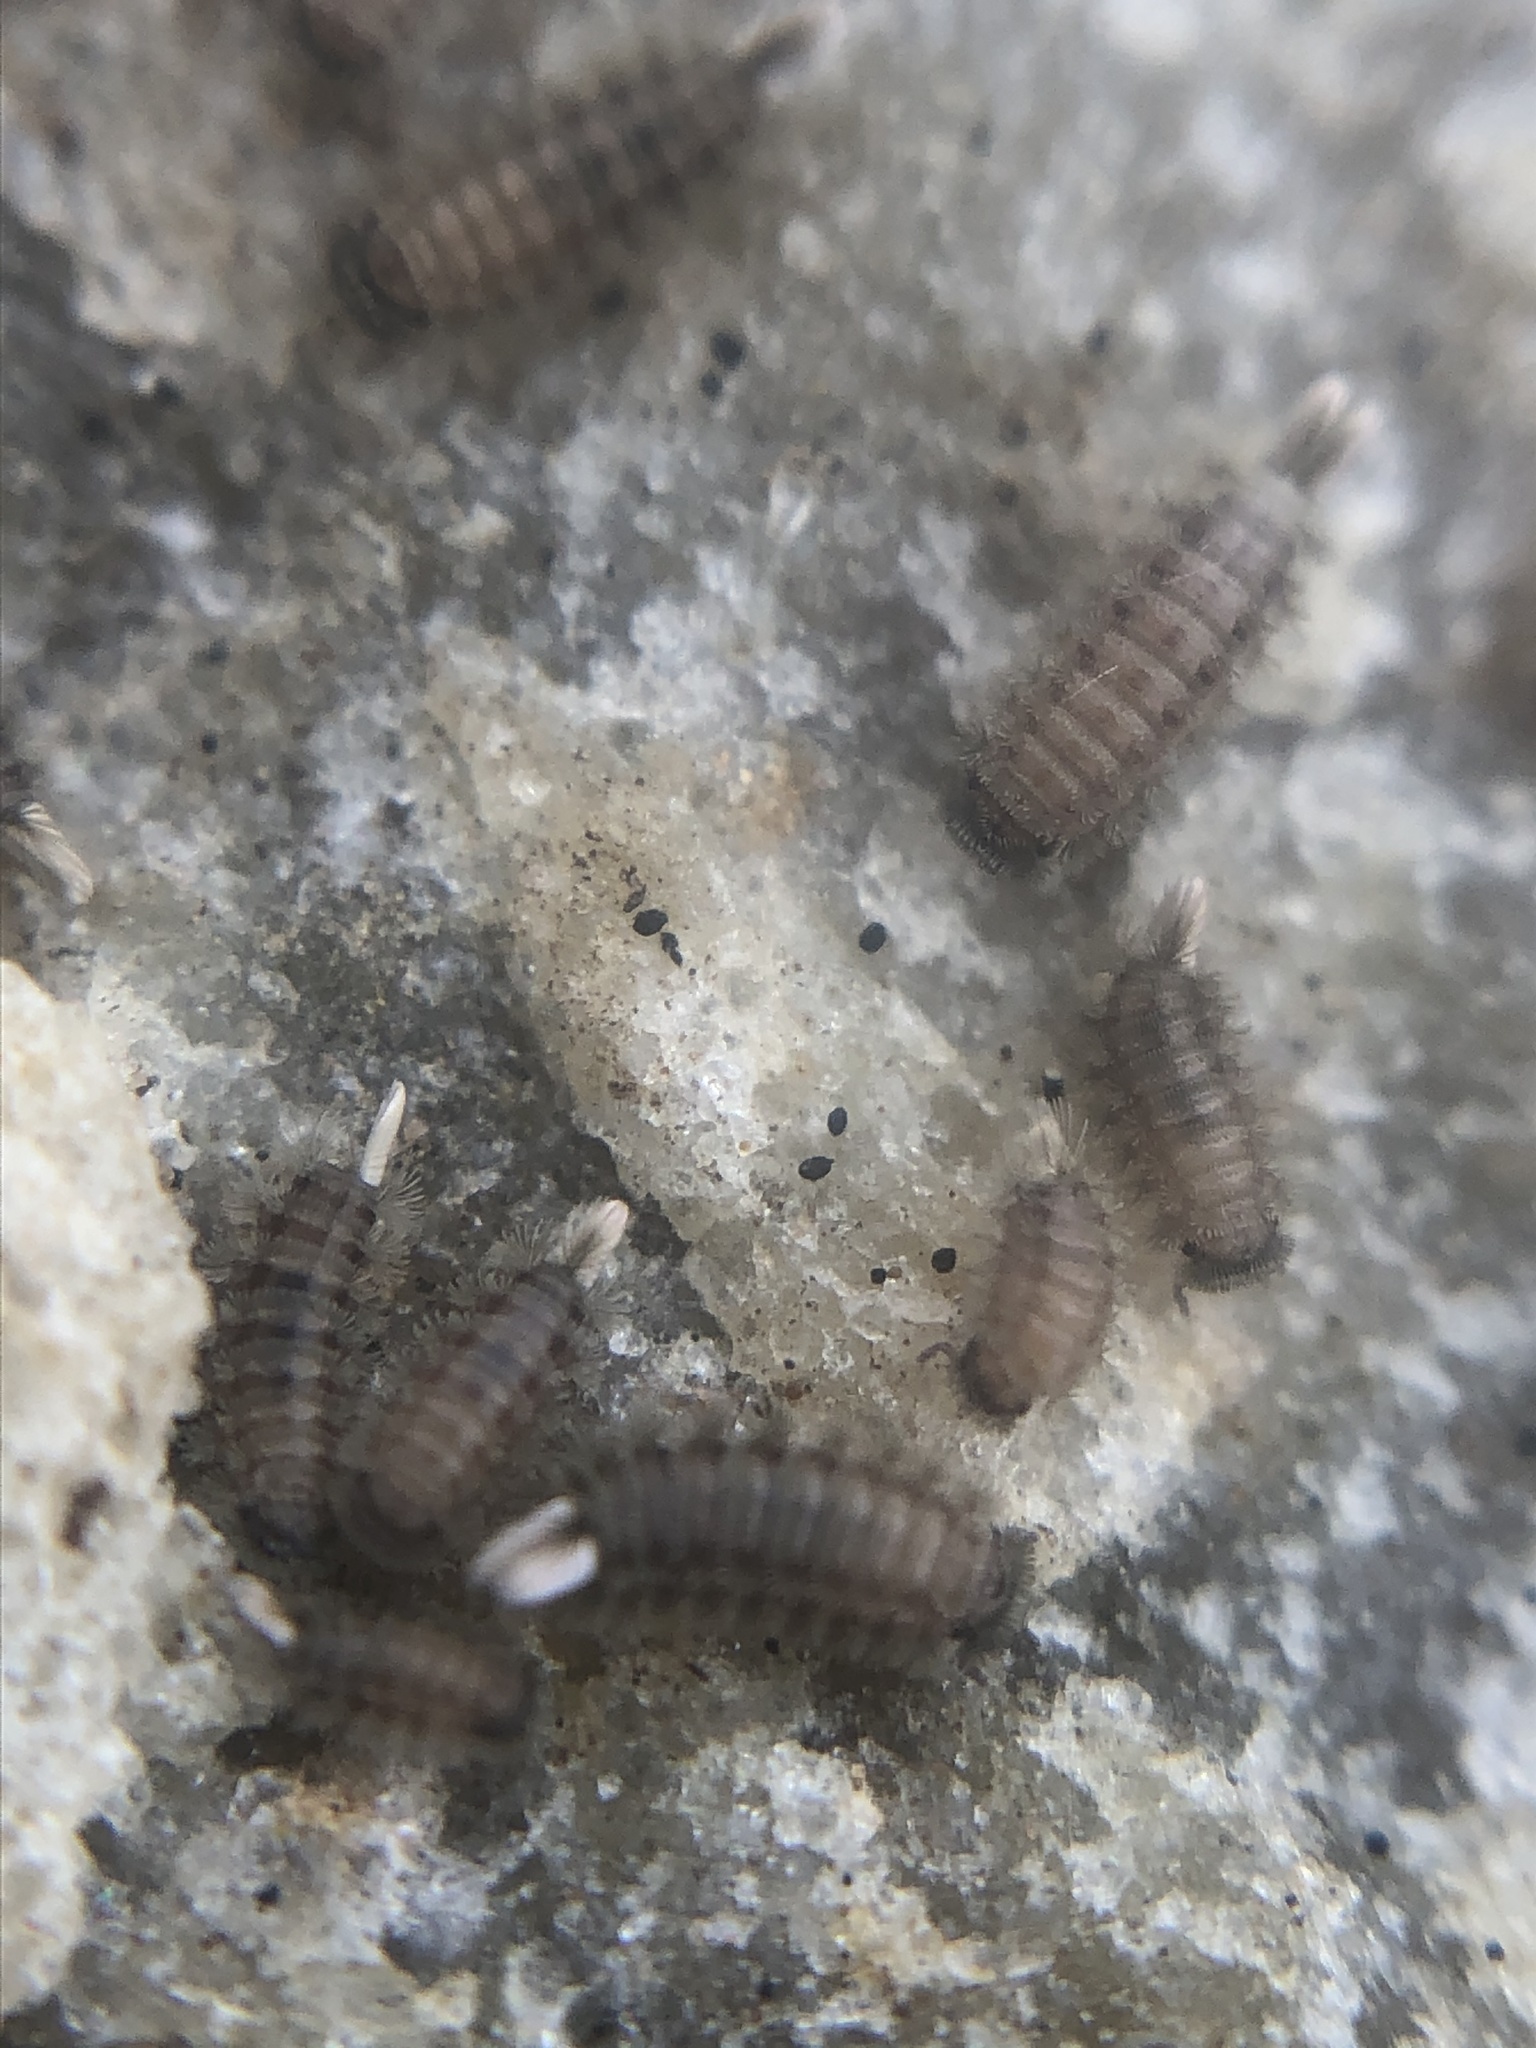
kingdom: Animalia
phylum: Arthropoda
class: Diplopoda
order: Polyxenida
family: Polyxenidae
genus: Polyxenus
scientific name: Polyxenus lagurus
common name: Bristly millipede
